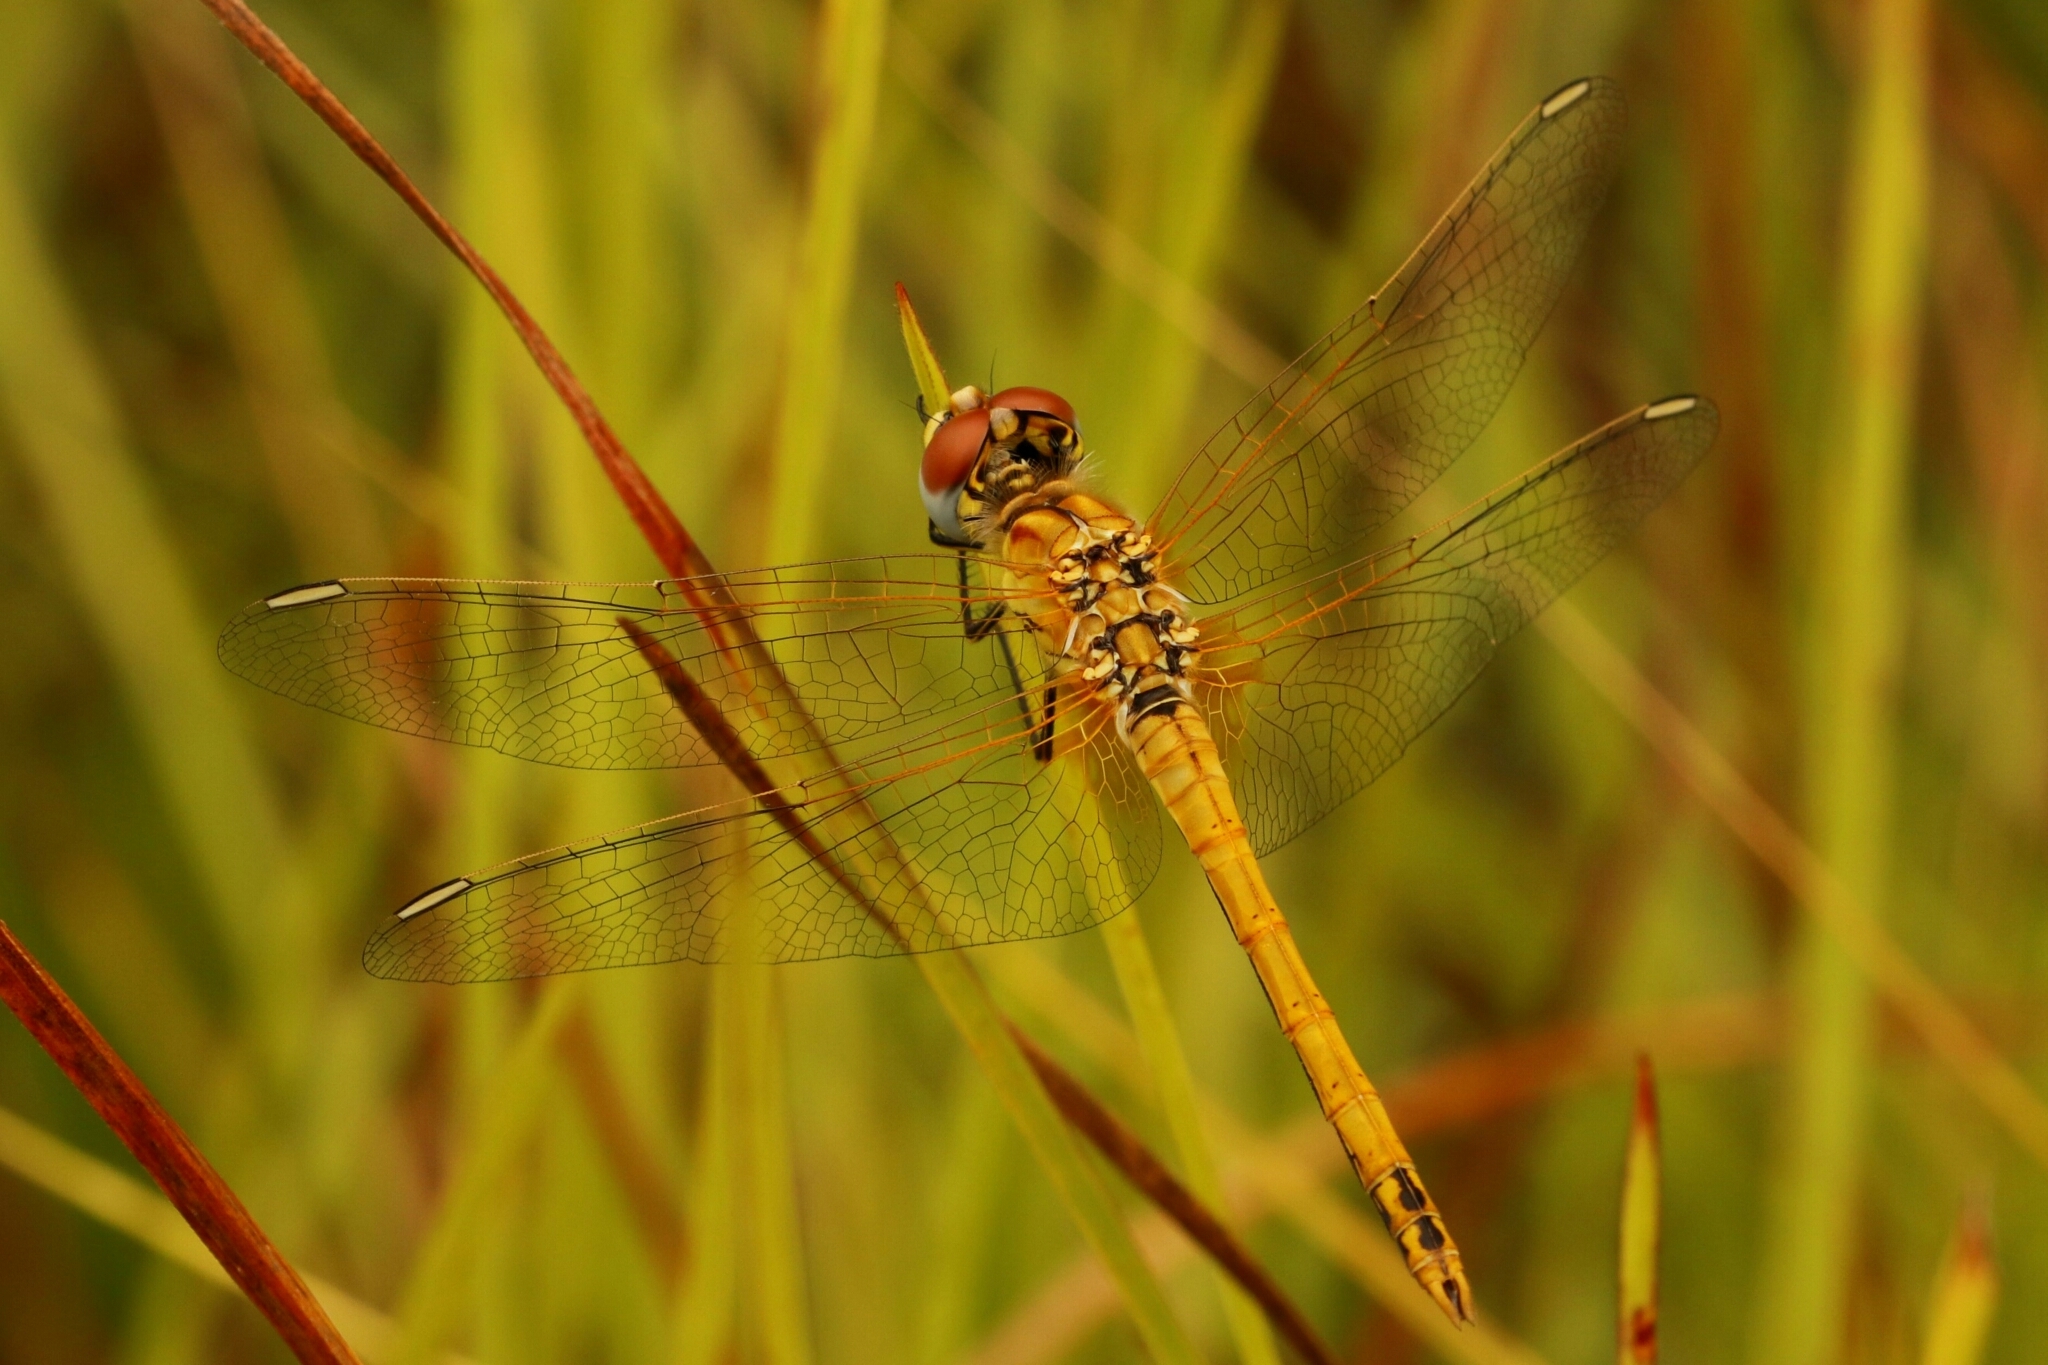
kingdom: Animalia
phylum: Arthropoda
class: Insecta
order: Odonata
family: Libellulidae
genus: Sympetrum
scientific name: Sympetrum fonscolombii
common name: Red-veined darter
